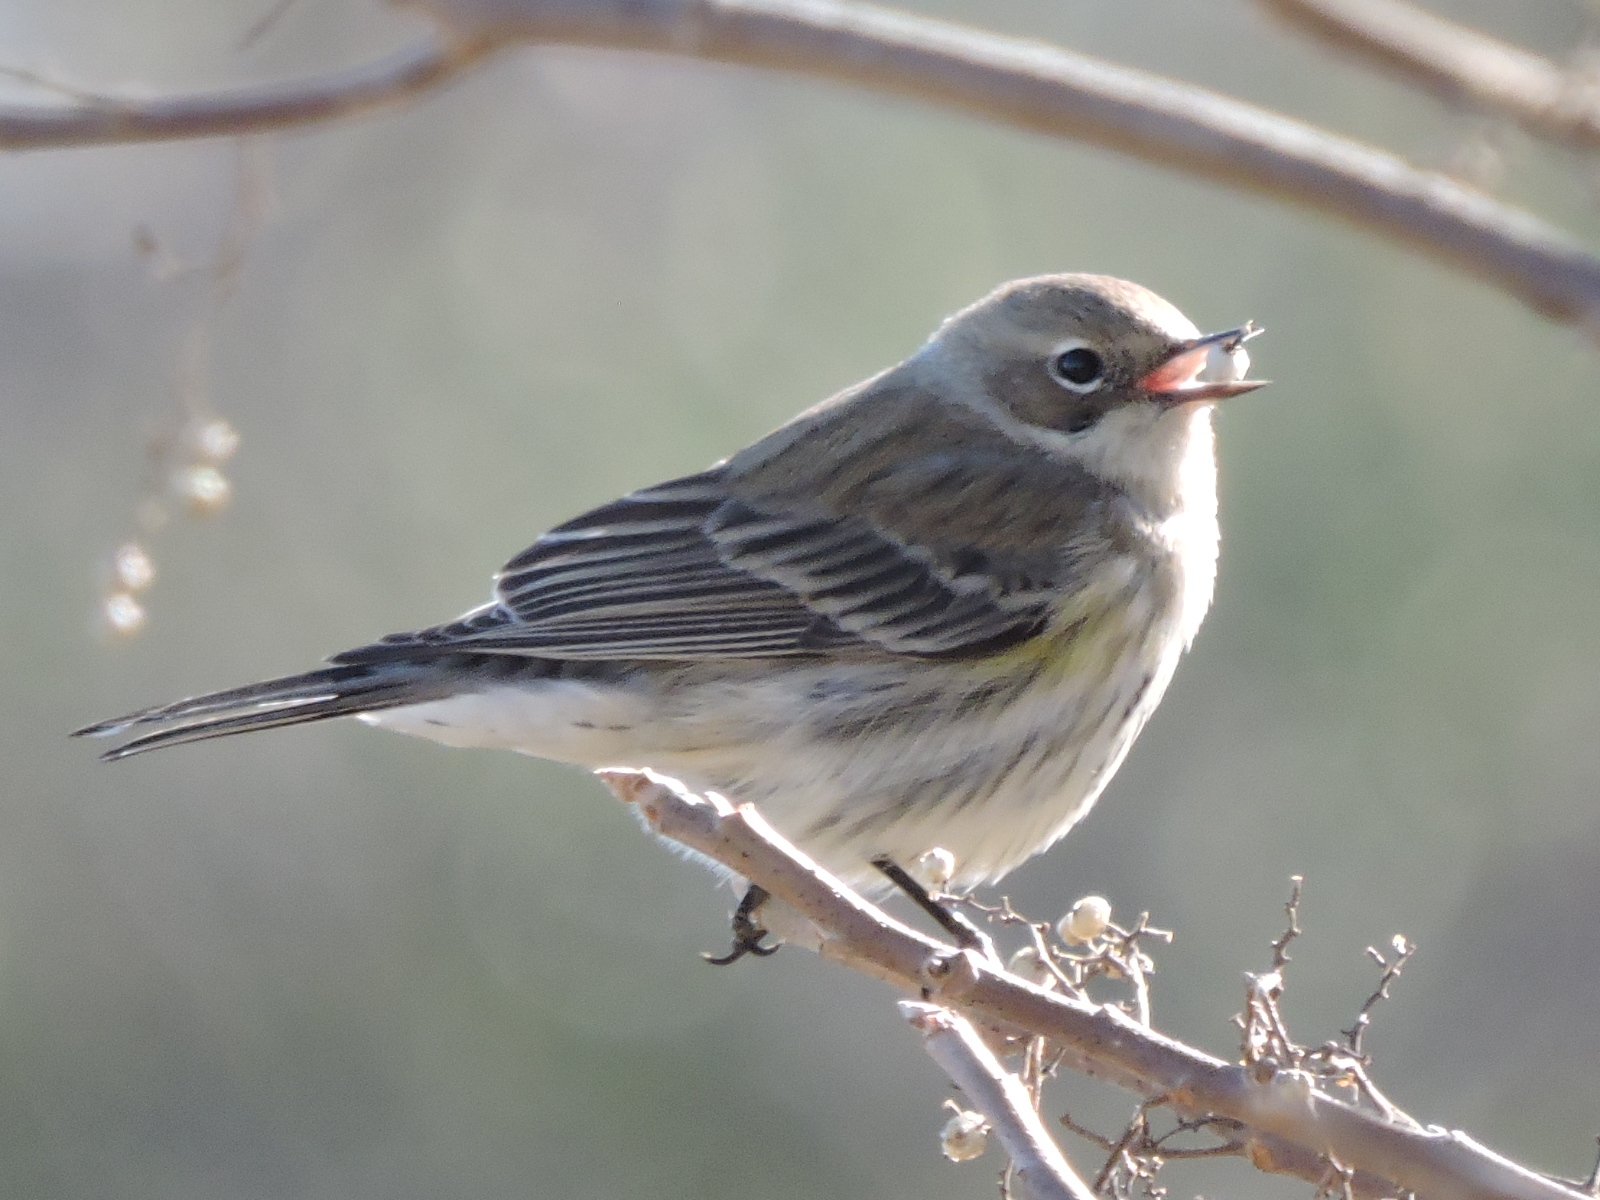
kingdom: Animalia
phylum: Chordata
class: Aves
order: Passeriformes
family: Parulidae
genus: Setophaga
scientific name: Setophaga coronata
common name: Myrtle warbler
